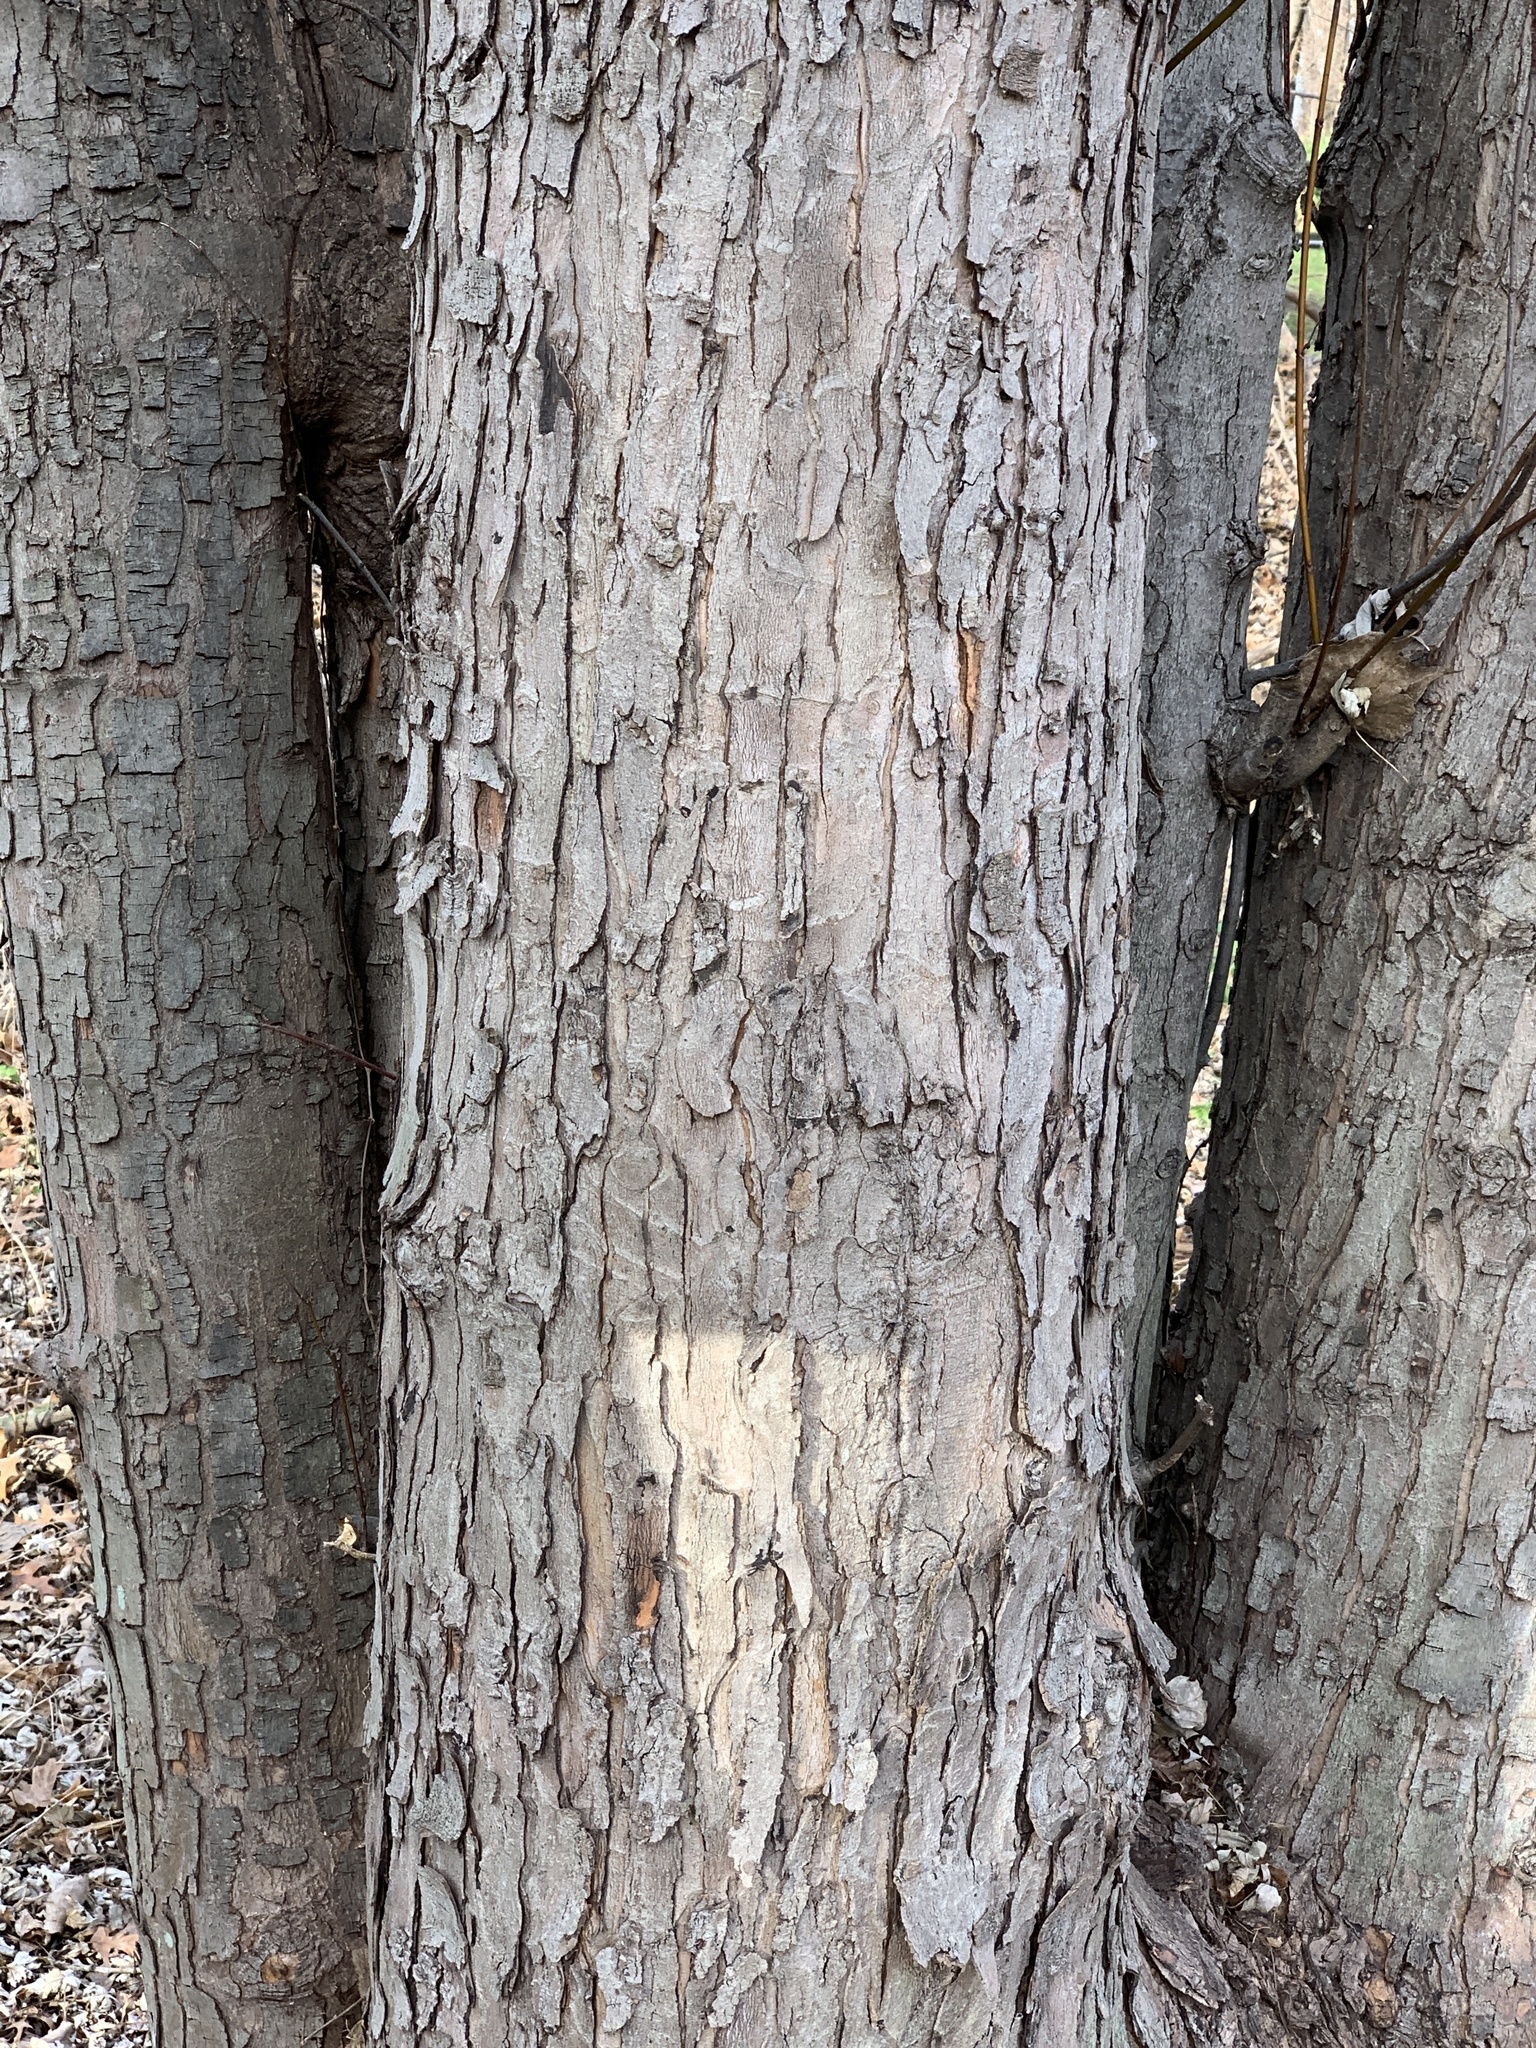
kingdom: Plantae
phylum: Tracheophyta
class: Magnoliopsida
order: Sapindales
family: Sapindaceae
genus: Acer
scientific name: Acer saccharinum
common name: Silver maple
